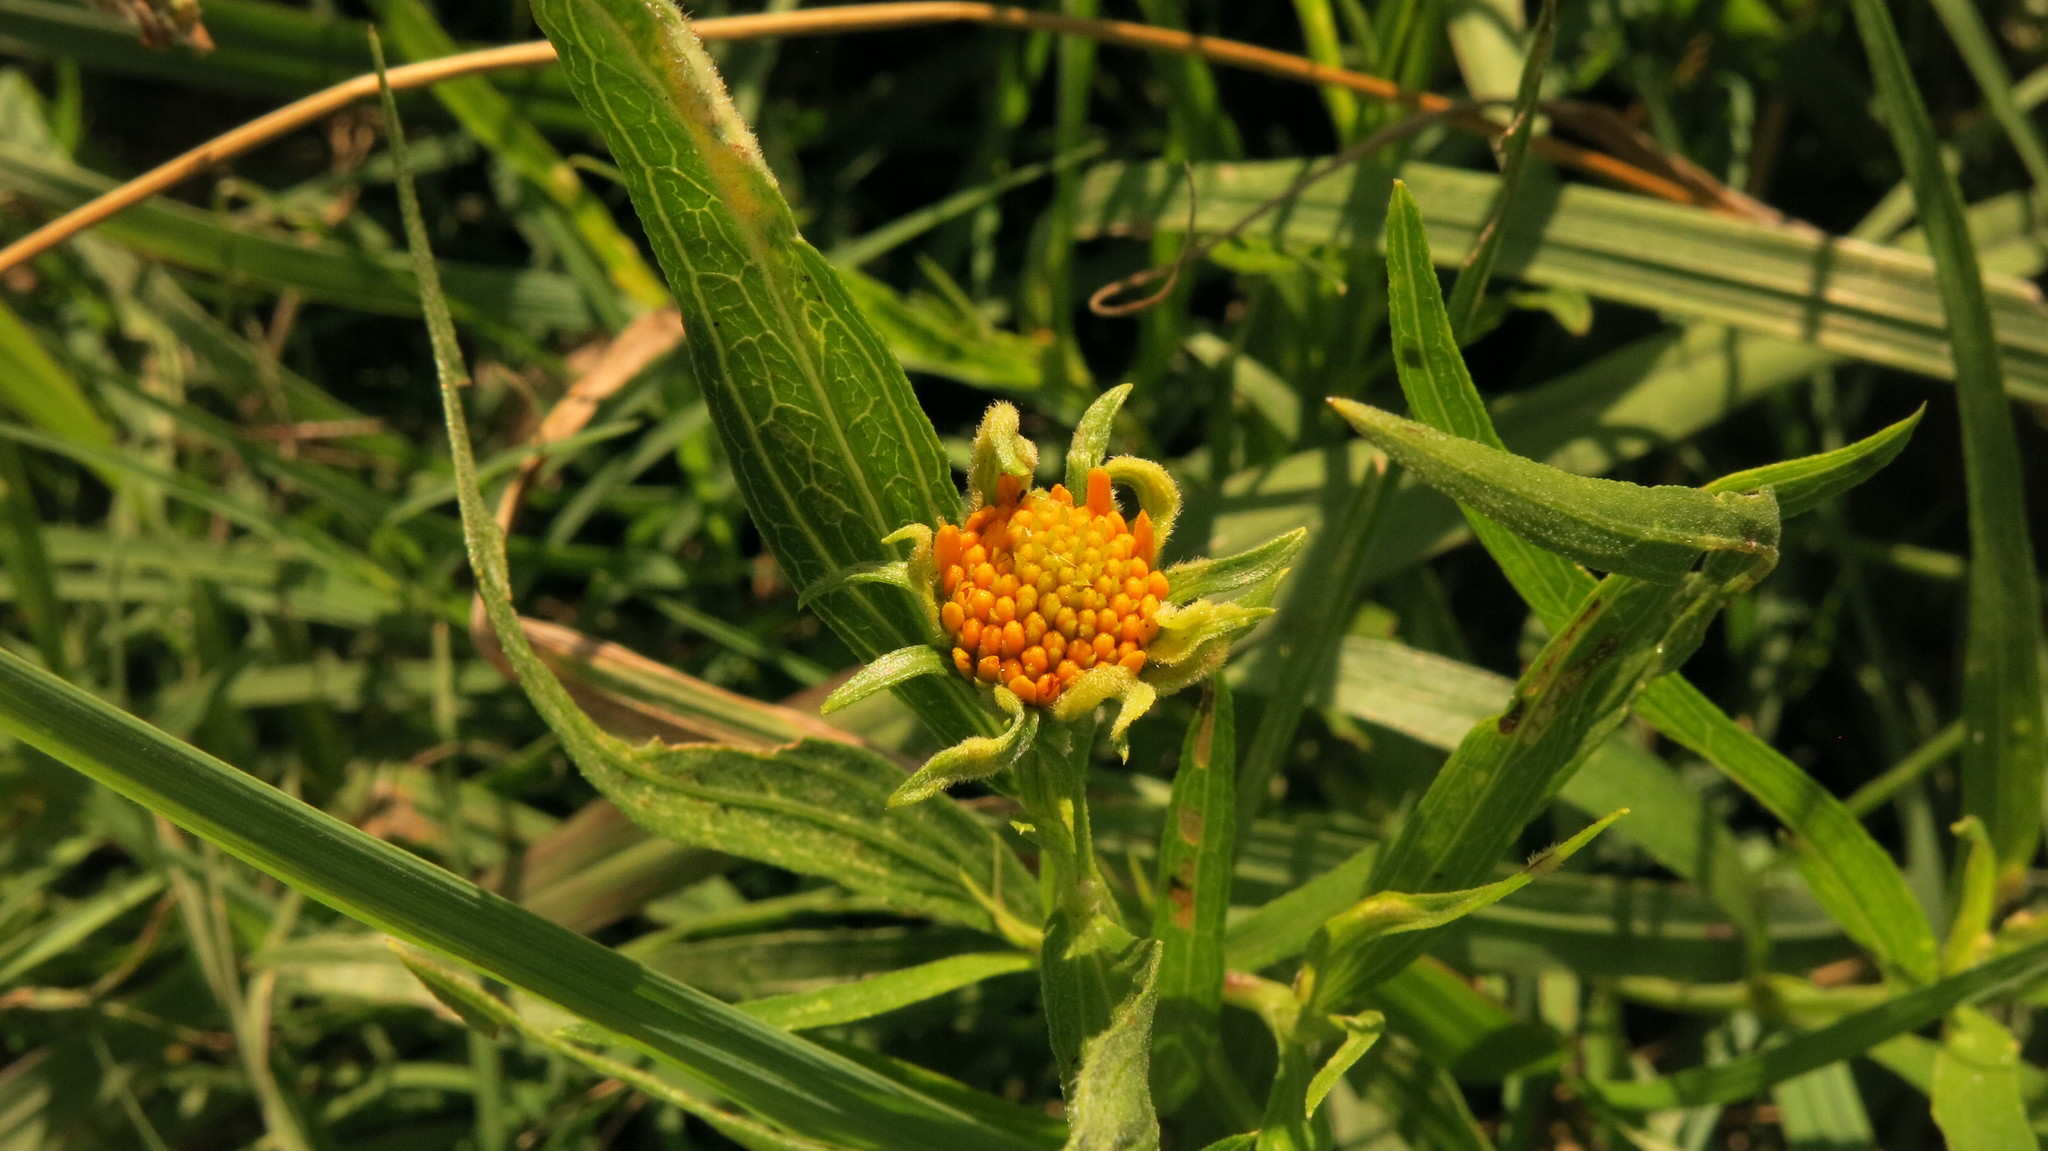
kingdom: Plantae
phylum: Tracheophyta
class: Magnoliopsida
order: Asterales
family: Asteraceae
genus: Pascalia
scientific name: Pascalia glauca
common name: Beach creeping oxeye
